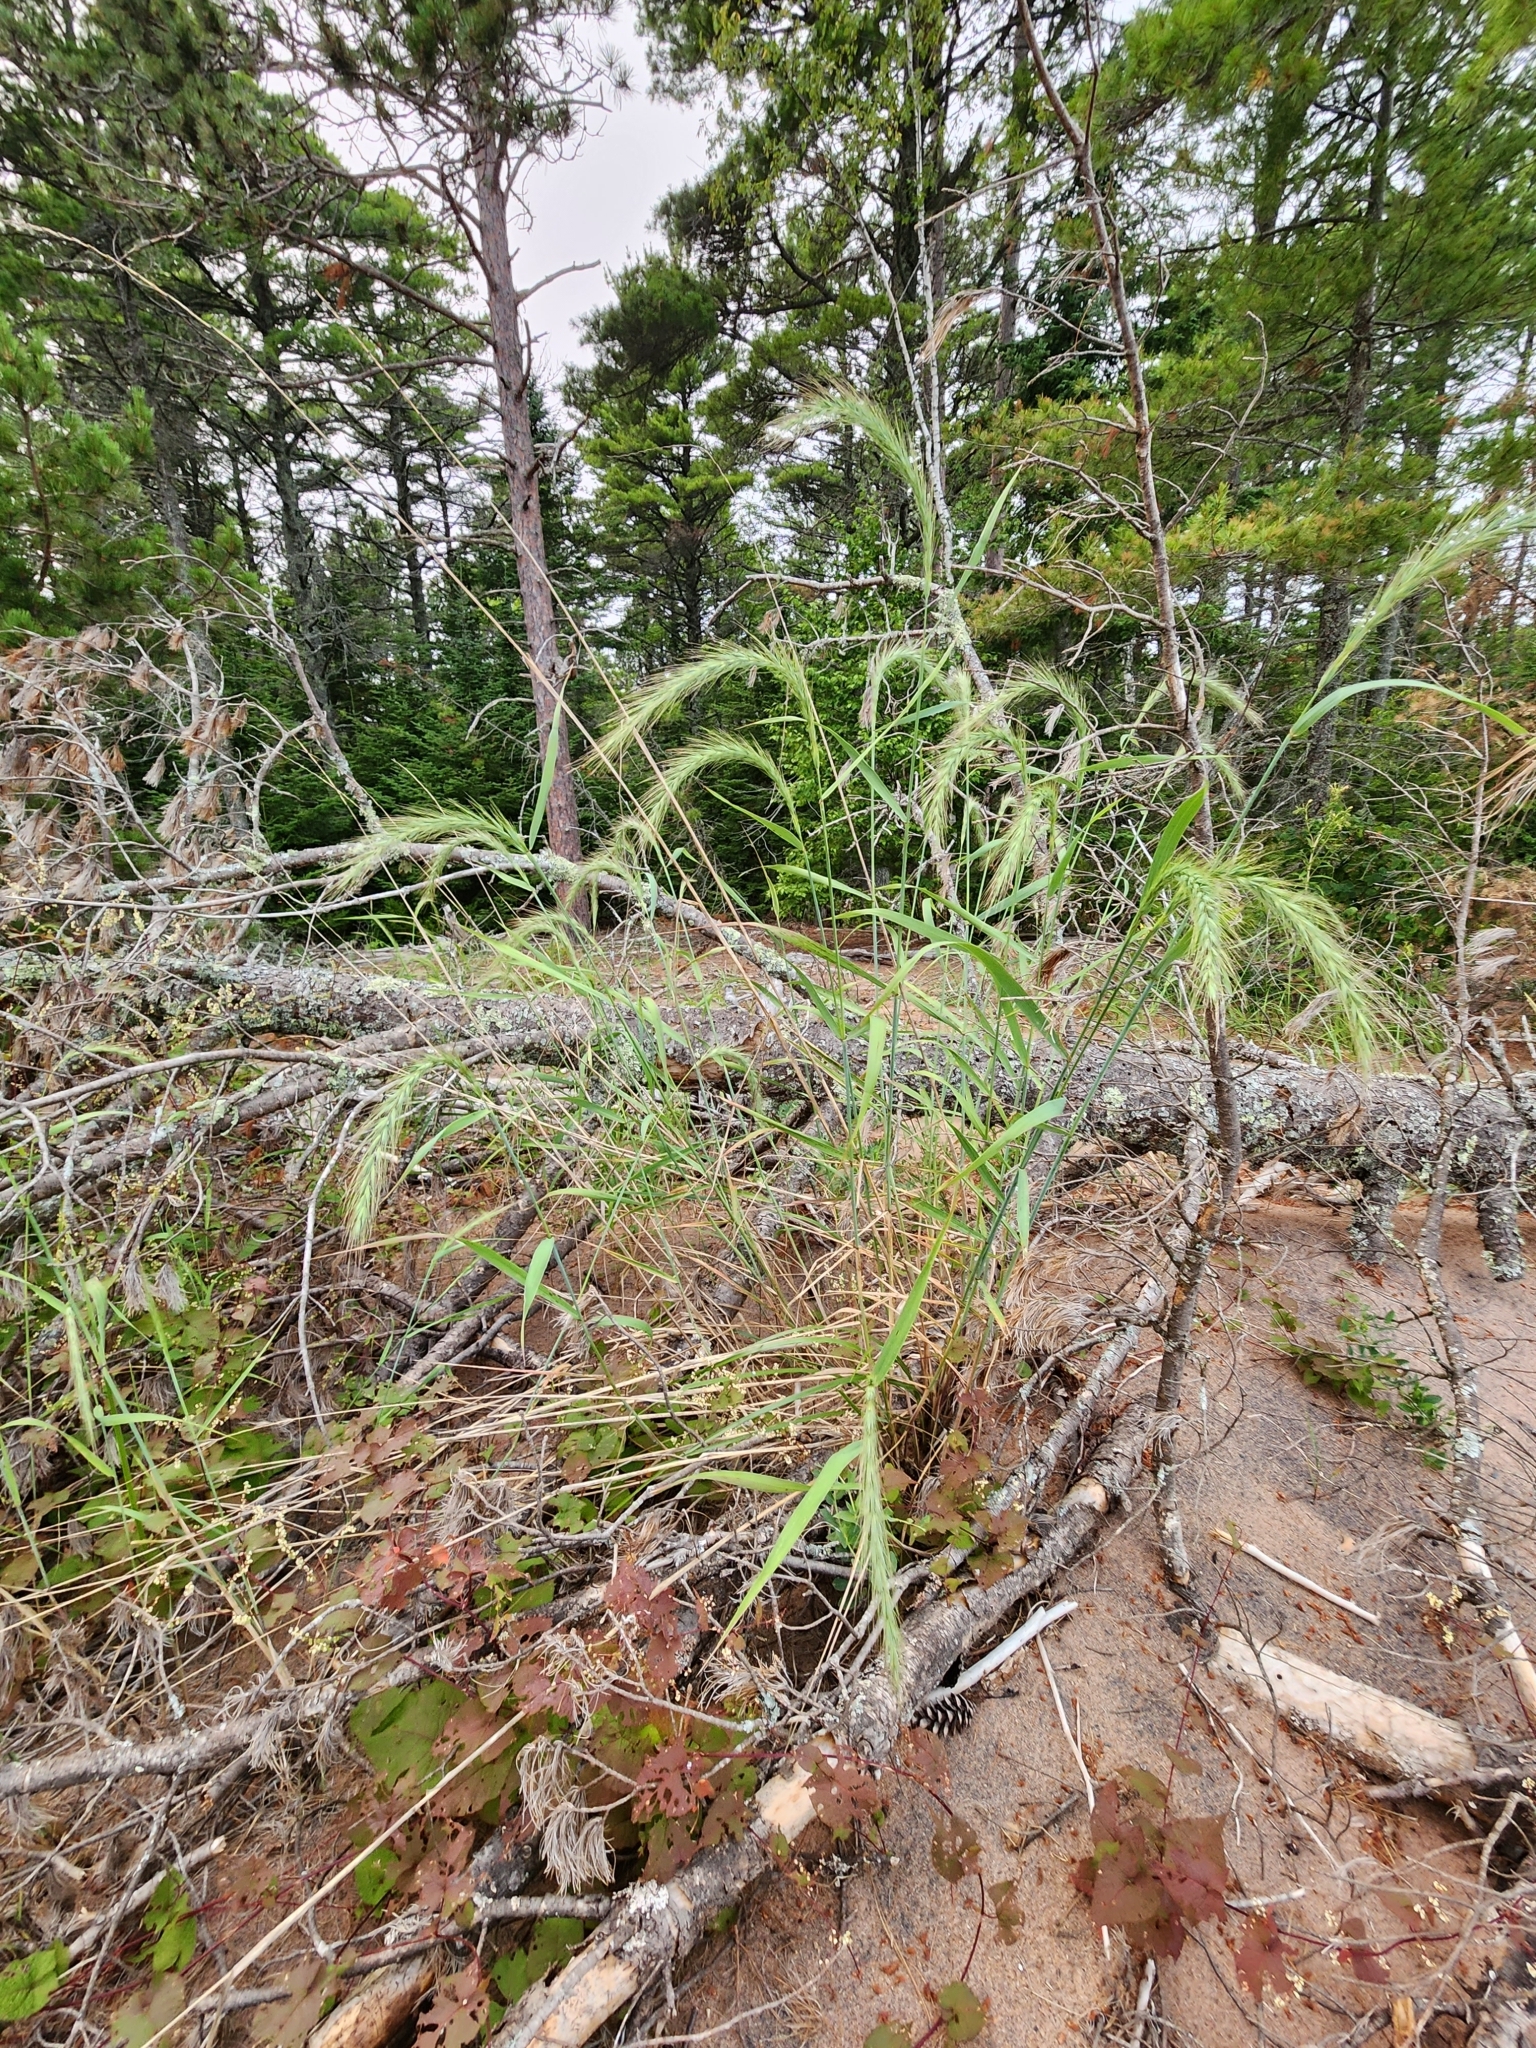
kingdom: Plantae
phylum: Tracheophyta
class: Liliopsida
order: Poales
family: Poaceae
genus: Elymus
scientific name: Elymus canadensis
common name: Canada wild rye
